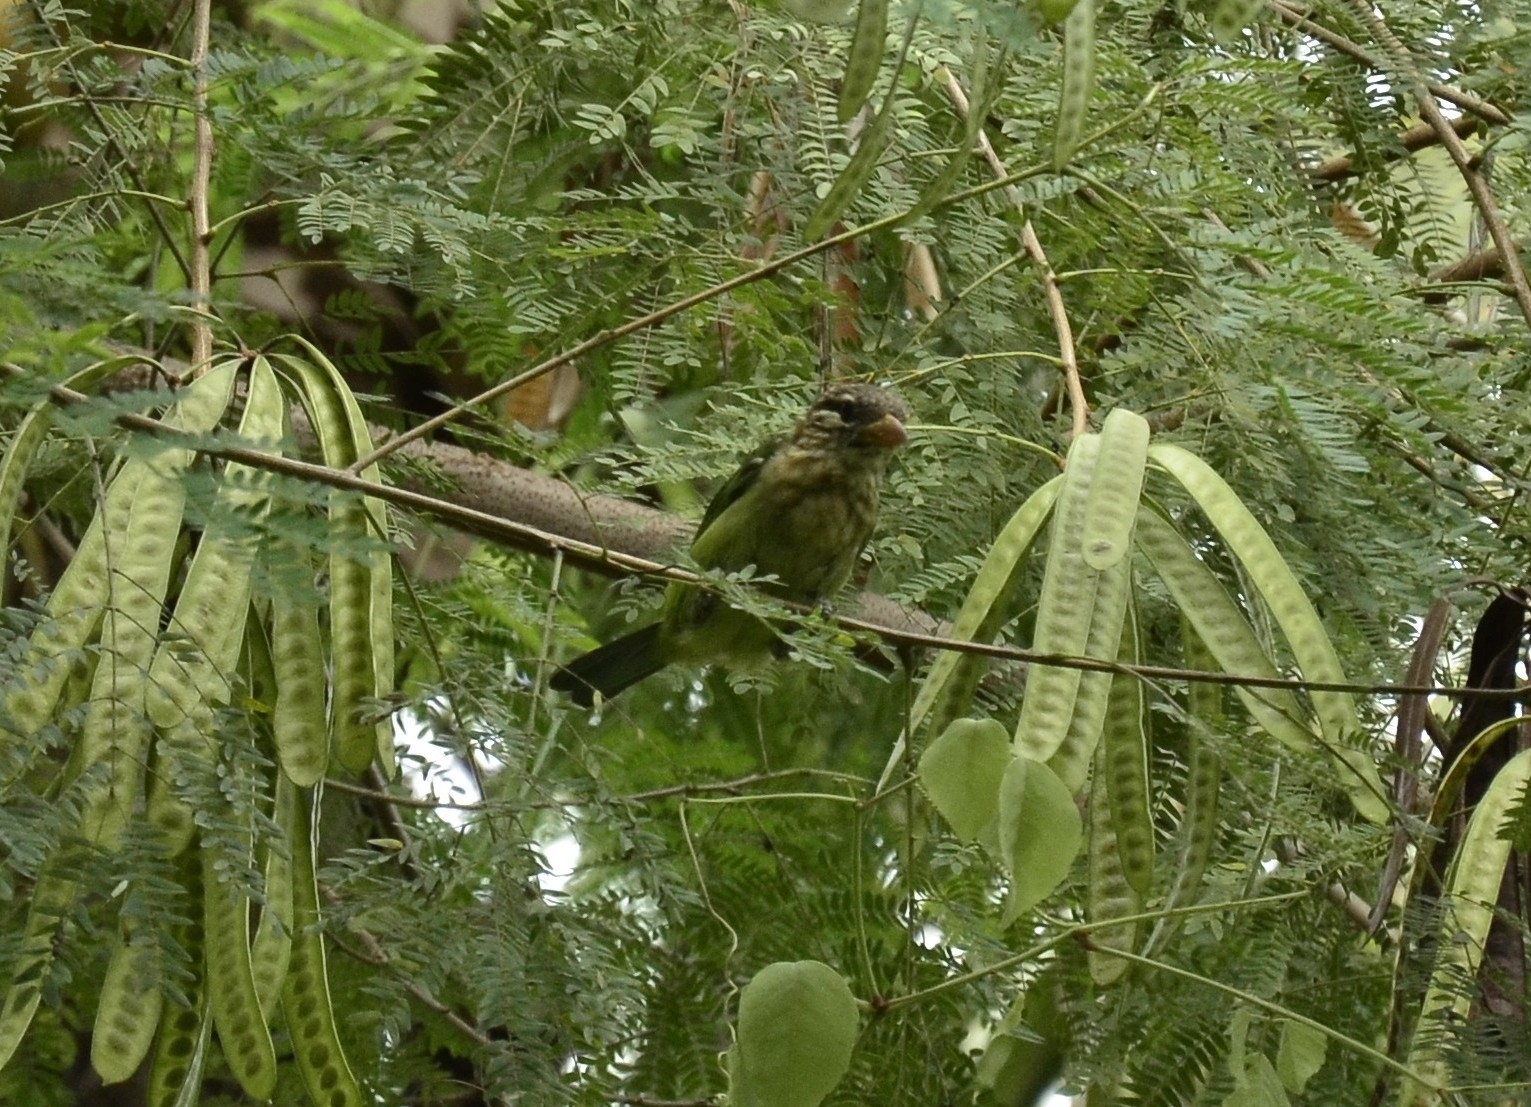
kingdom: Animalia
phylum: Chordata
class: Aves
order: Piciformes
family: Megalaimidae
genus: Psilopogon
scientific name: Psilopogon viridis
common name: White-cheeked barbet
